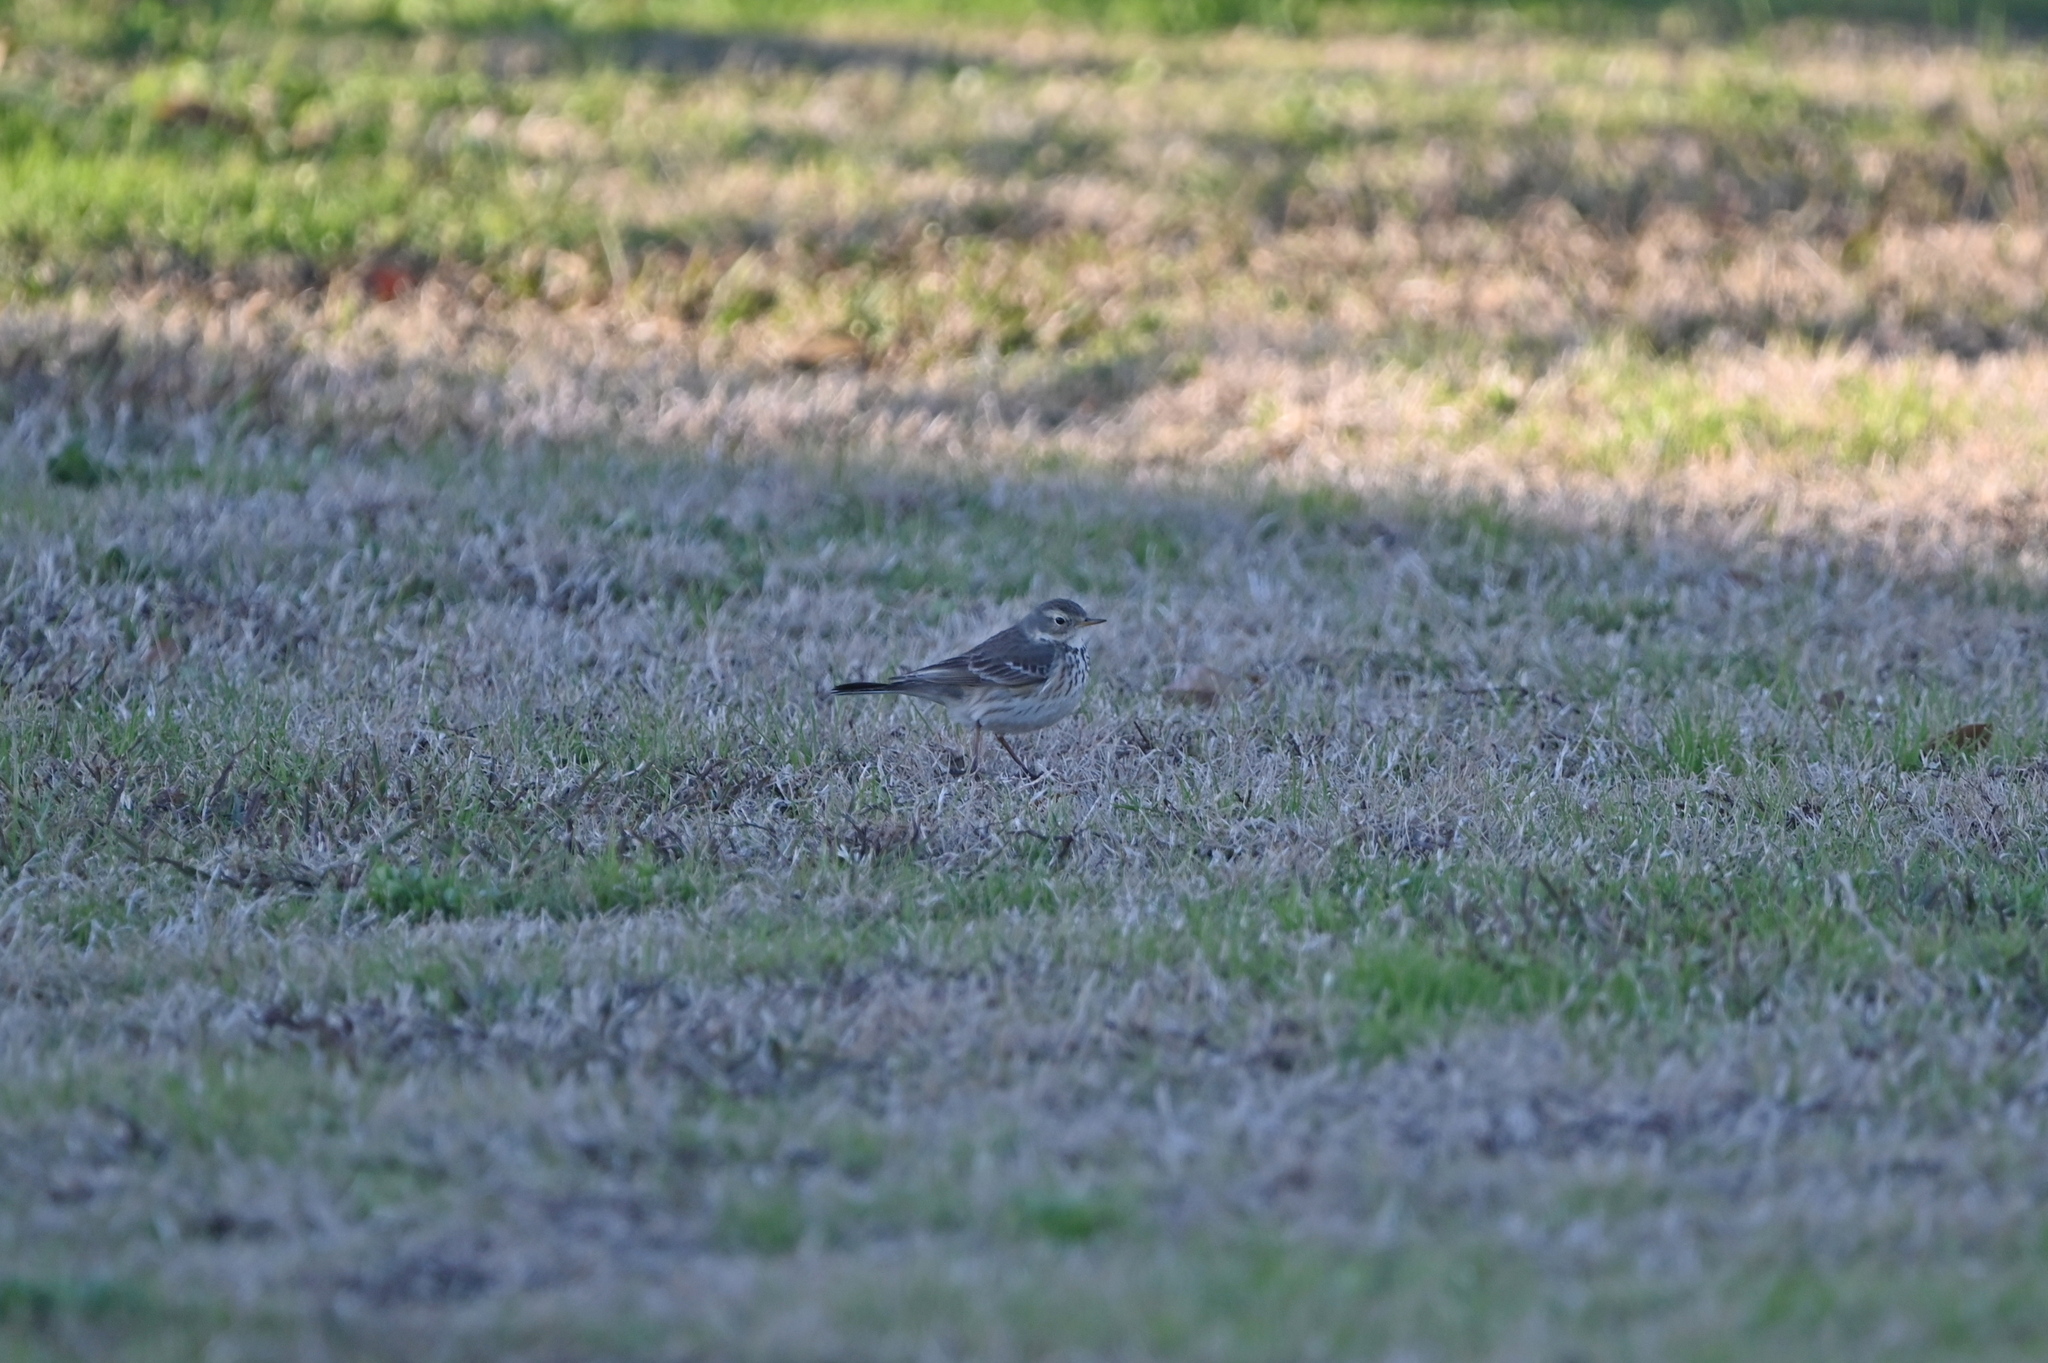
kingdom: Animalia
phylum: Chordata
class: Aves
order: Passeriformes
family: Motacillidae
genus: Anthus
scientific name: Anthus rubescens
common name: Buff-bellied pipit
